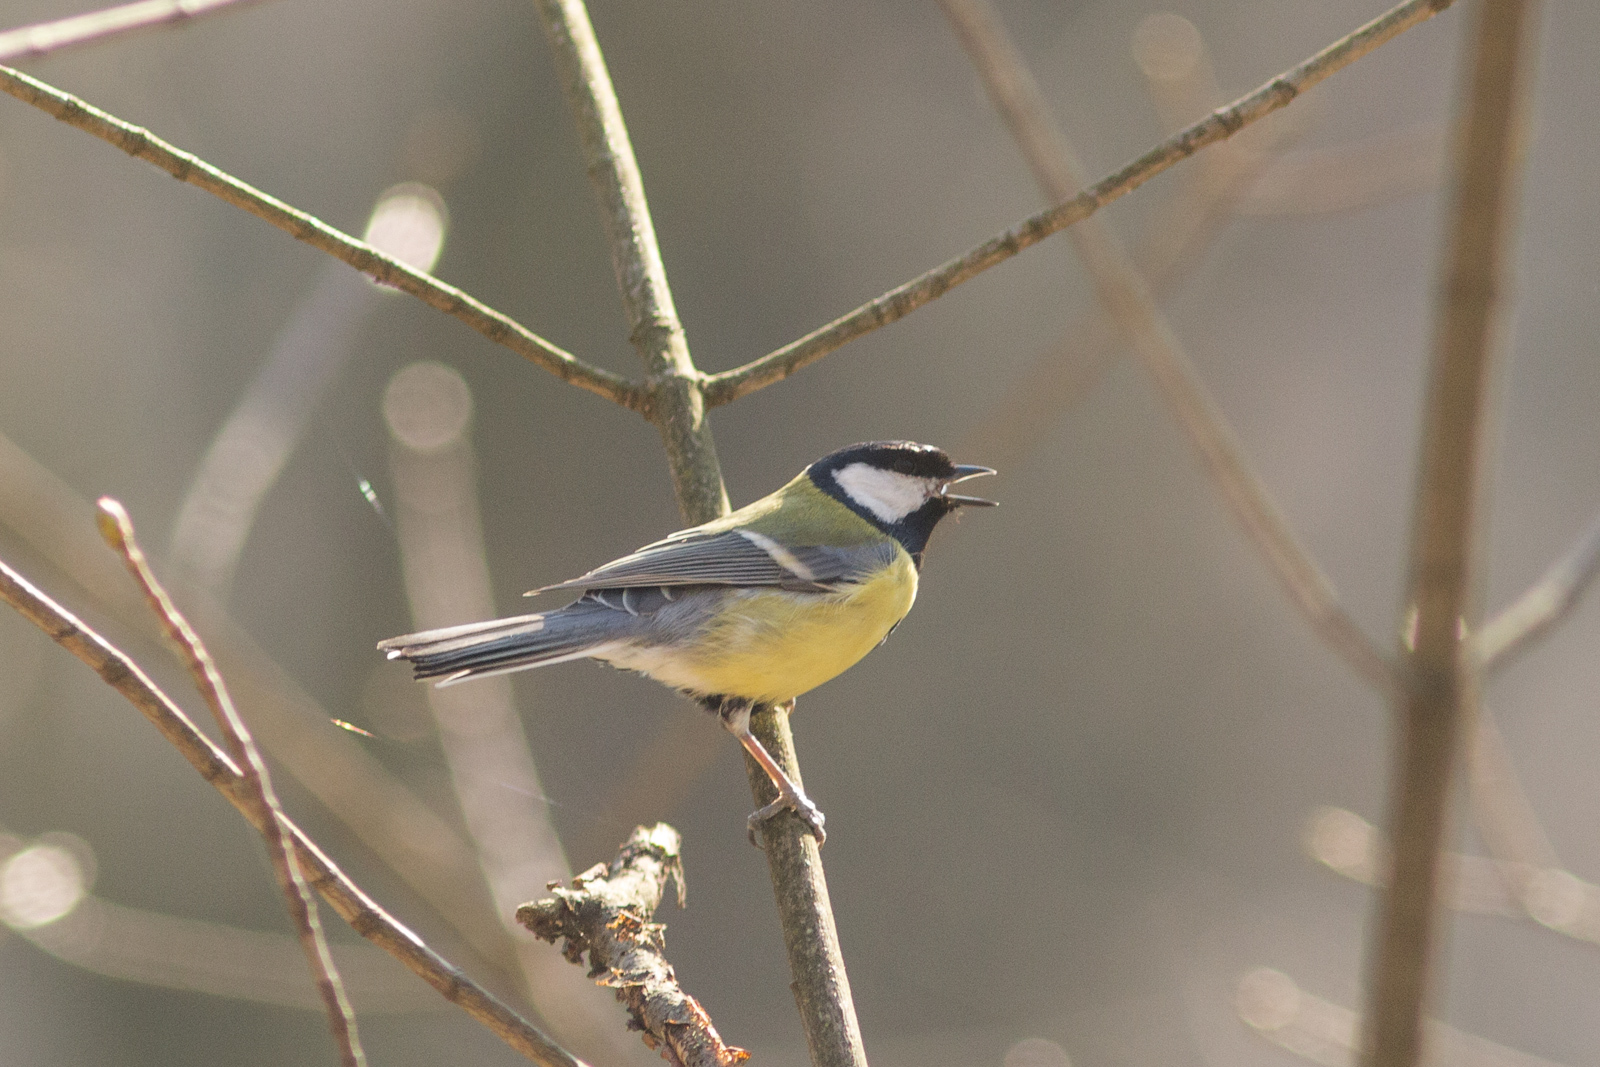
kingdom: Animalia
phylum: Chordata
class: Aves
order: Passeriformes
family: Paridae
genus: Parus
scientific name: Parus major
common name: Great tit
